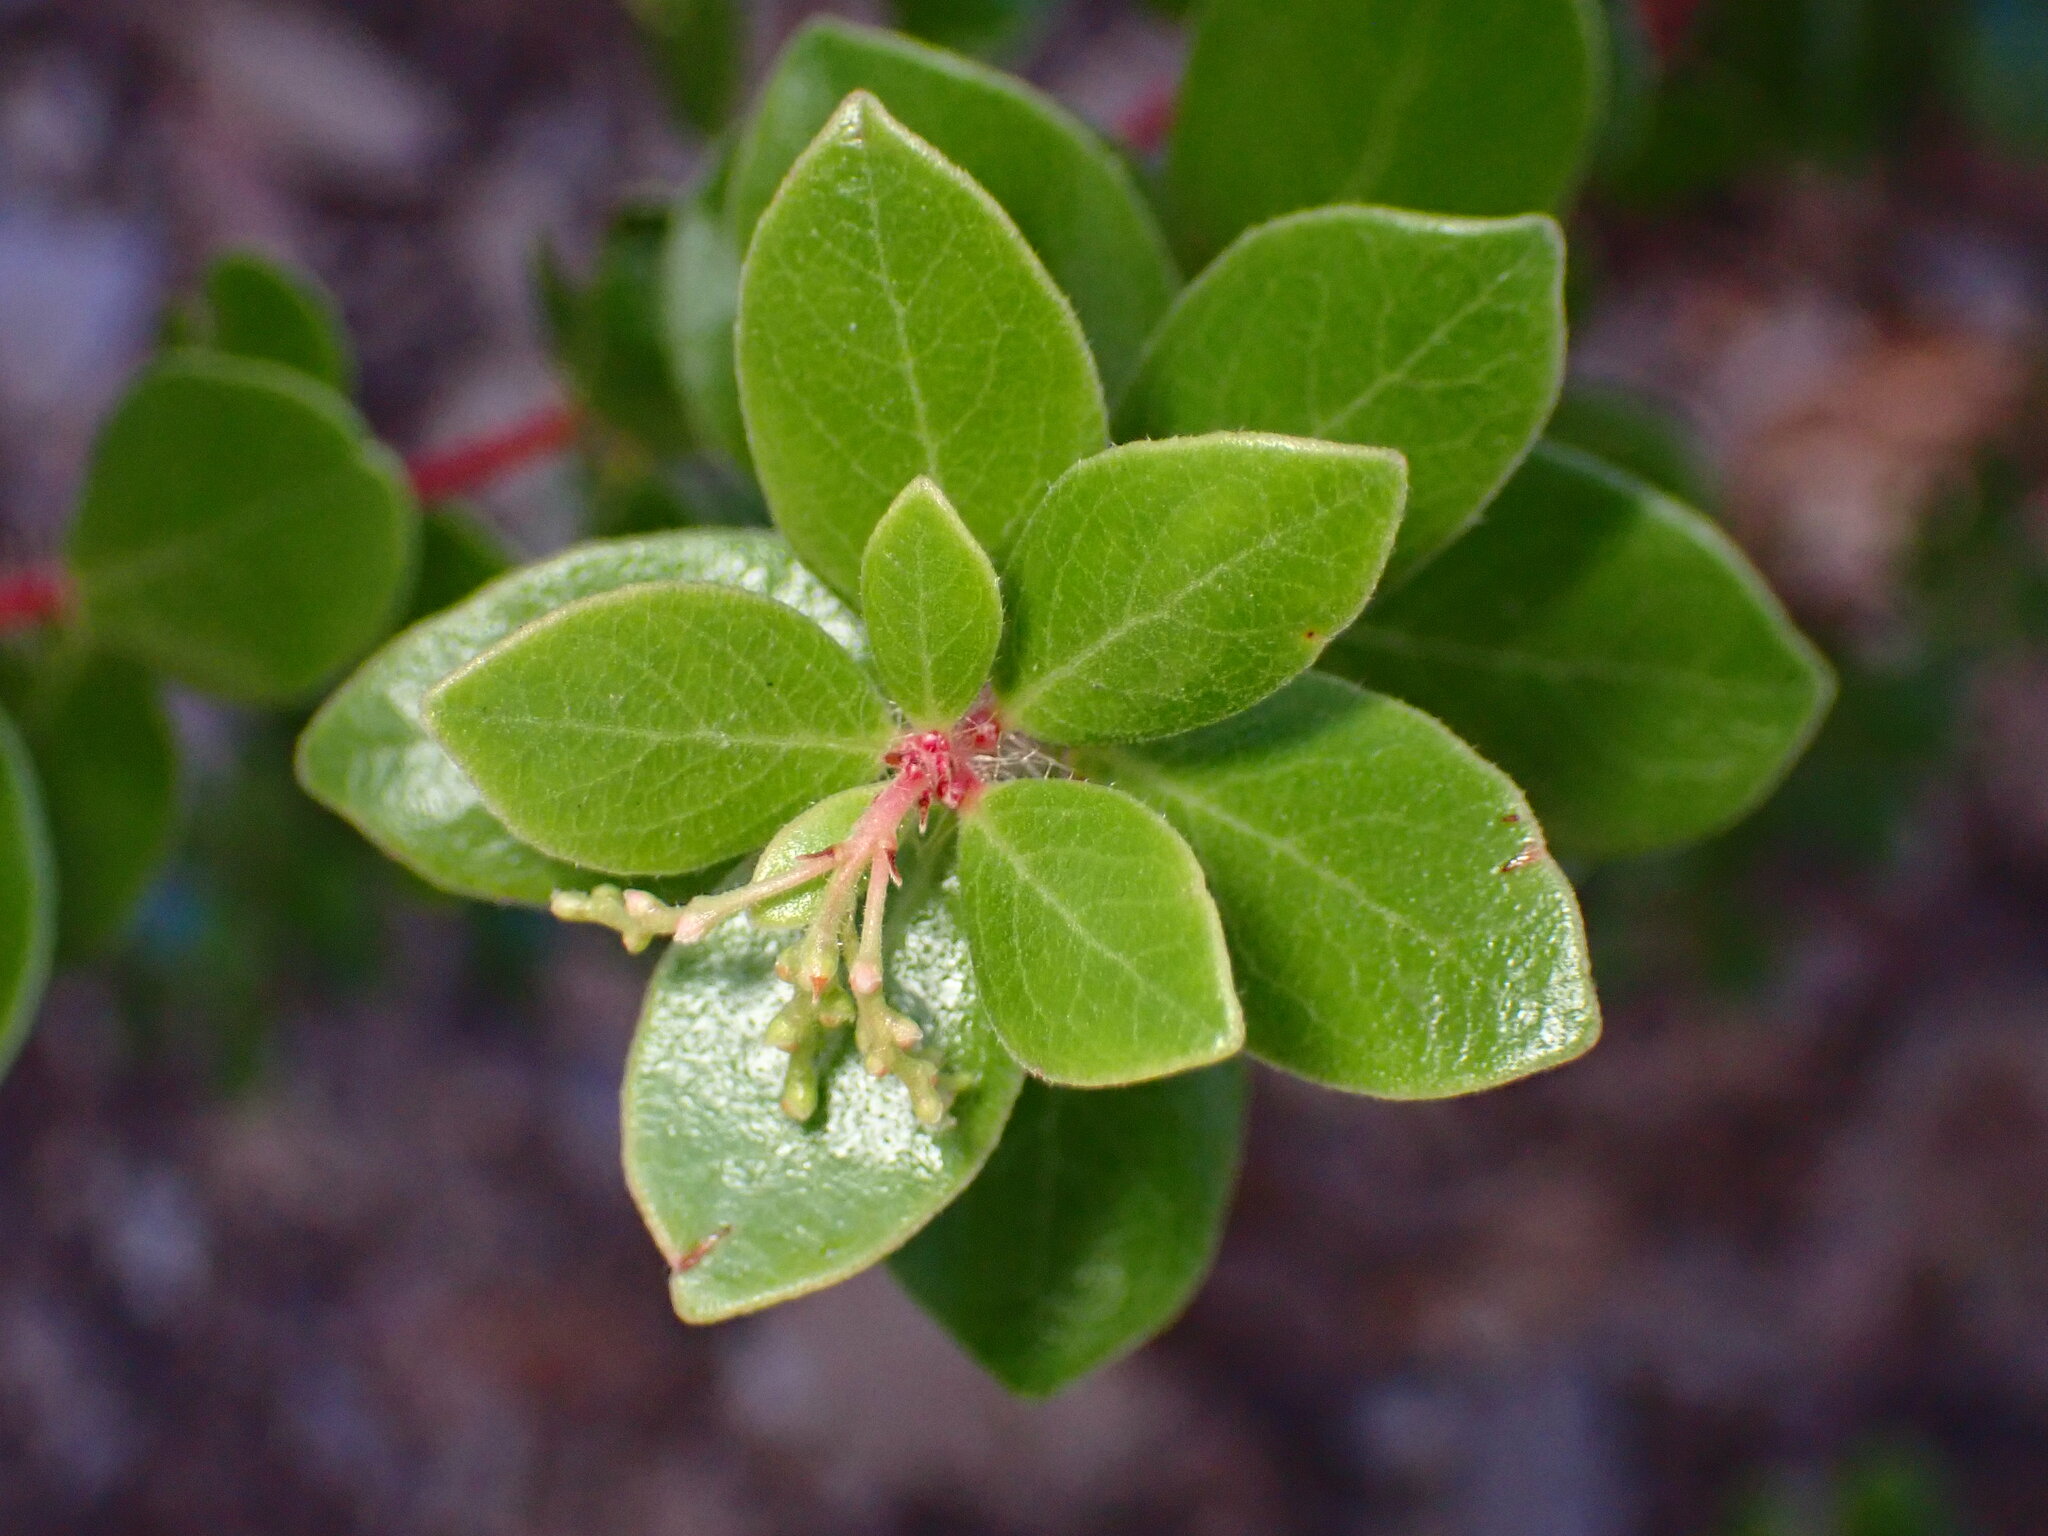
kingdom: Plantae
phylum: Tracheophyta
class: Magnoliopsida
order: Ericales
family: Ericaceae
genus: Arctostaphylos
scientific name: Arctostaphylos nummularia
